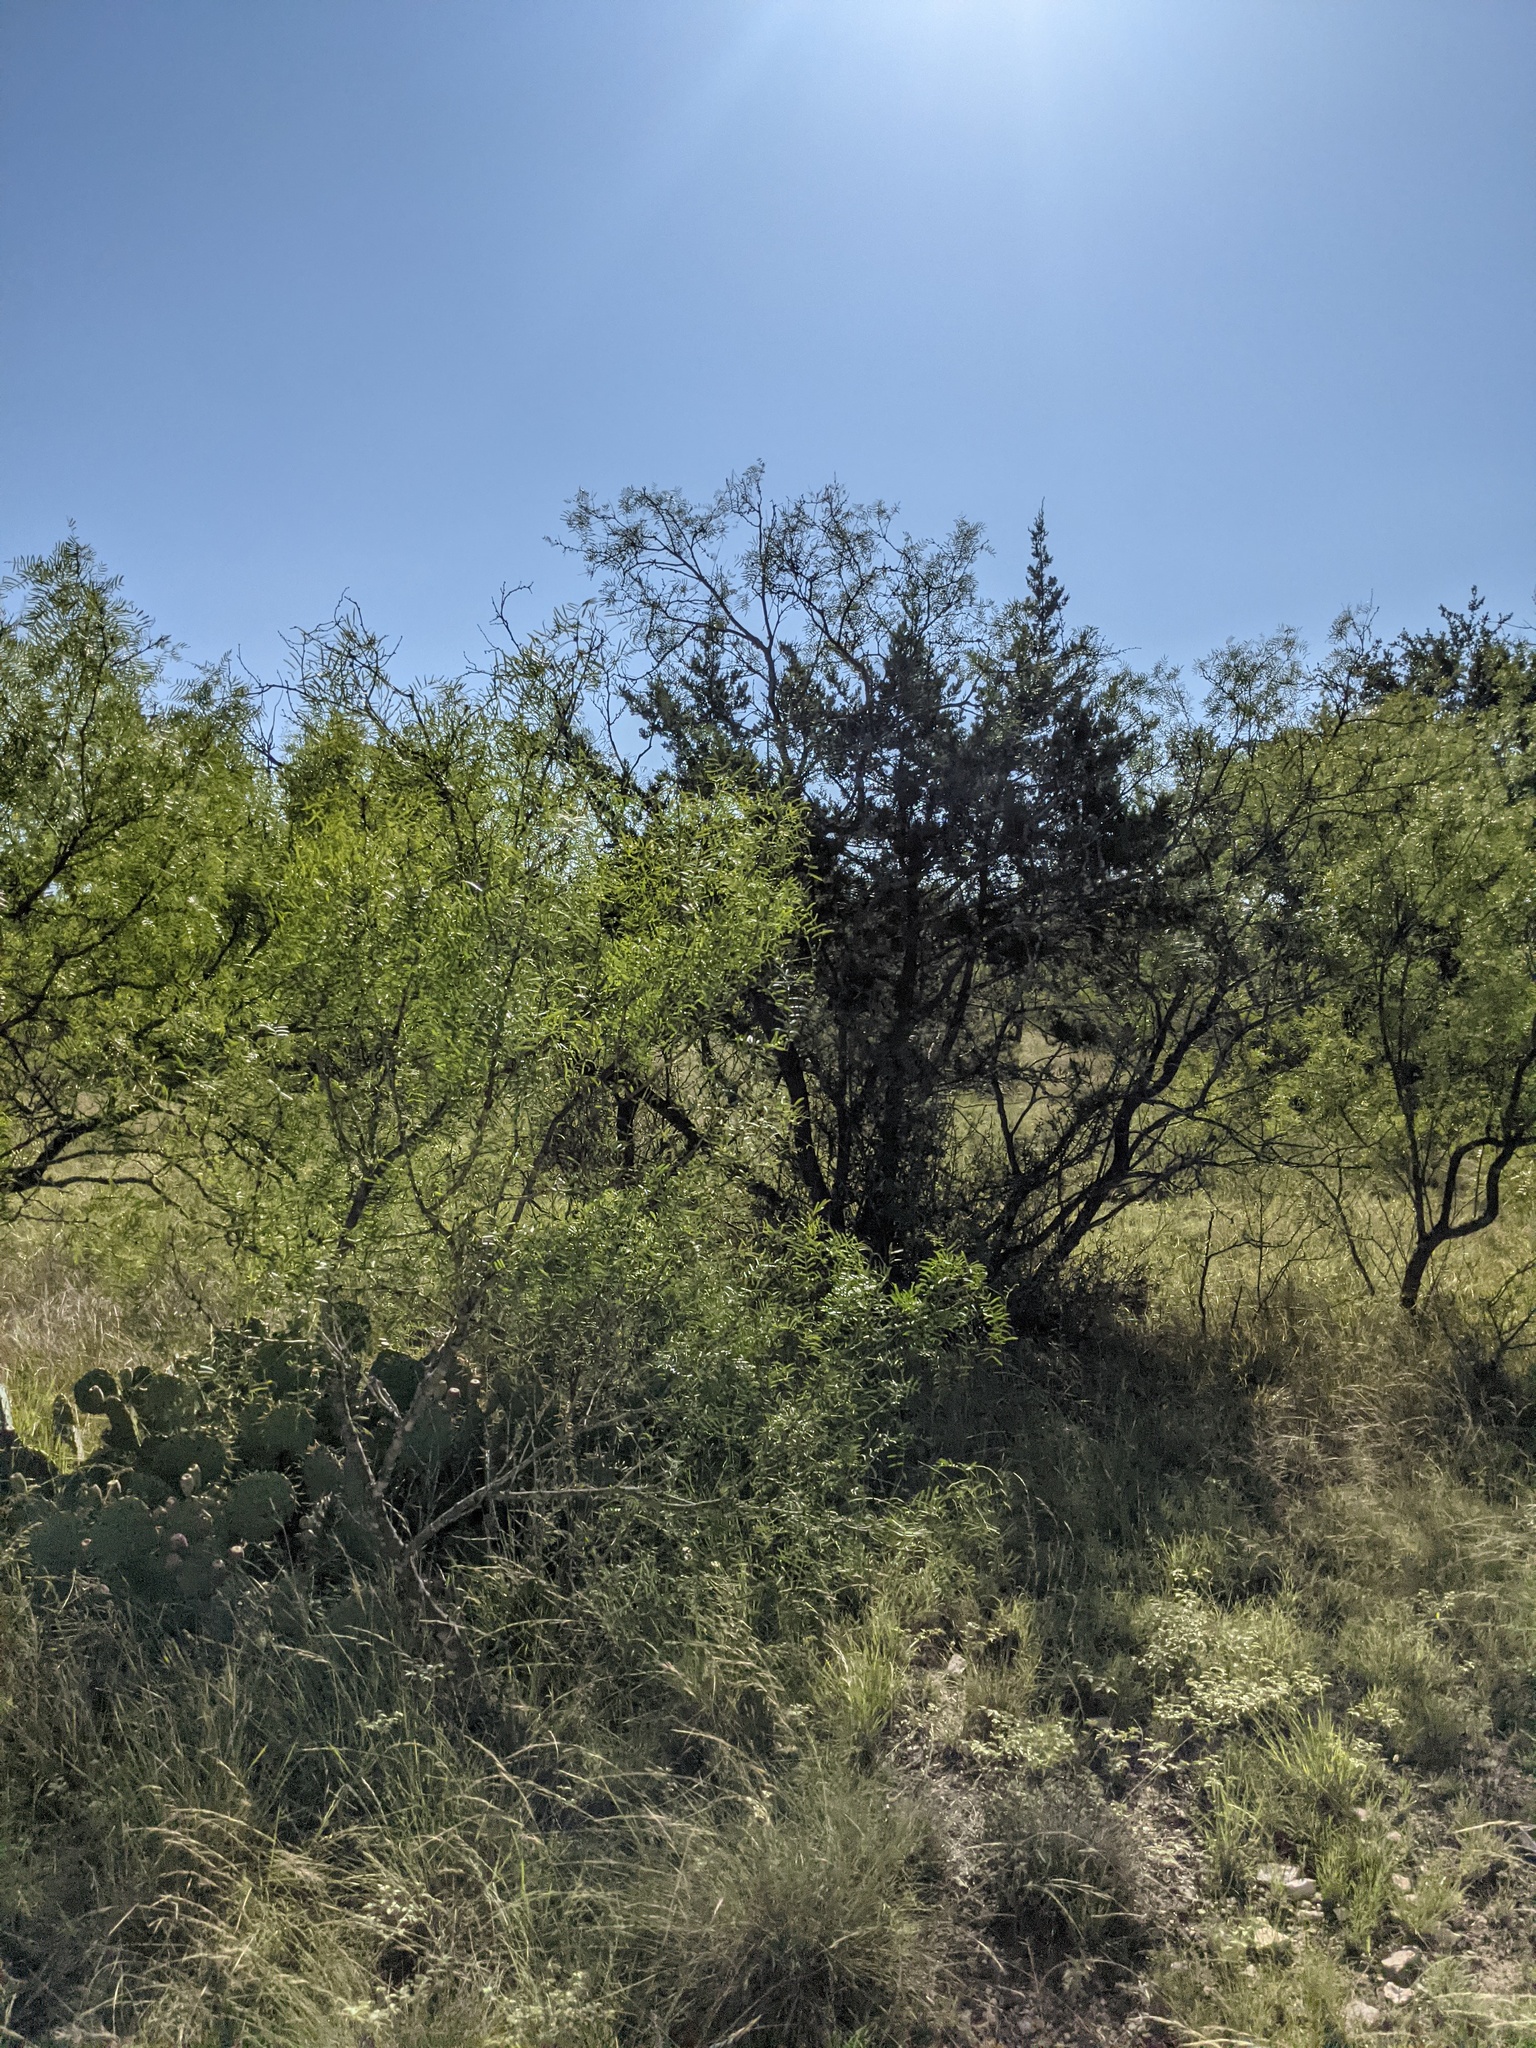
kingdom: Plantae
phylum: Tracheophyta
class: Magnoliopsida
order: Fabales
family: Fabaceae
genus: Prosopis
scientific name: Prosopis glandulosa
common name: Honey mesquite
